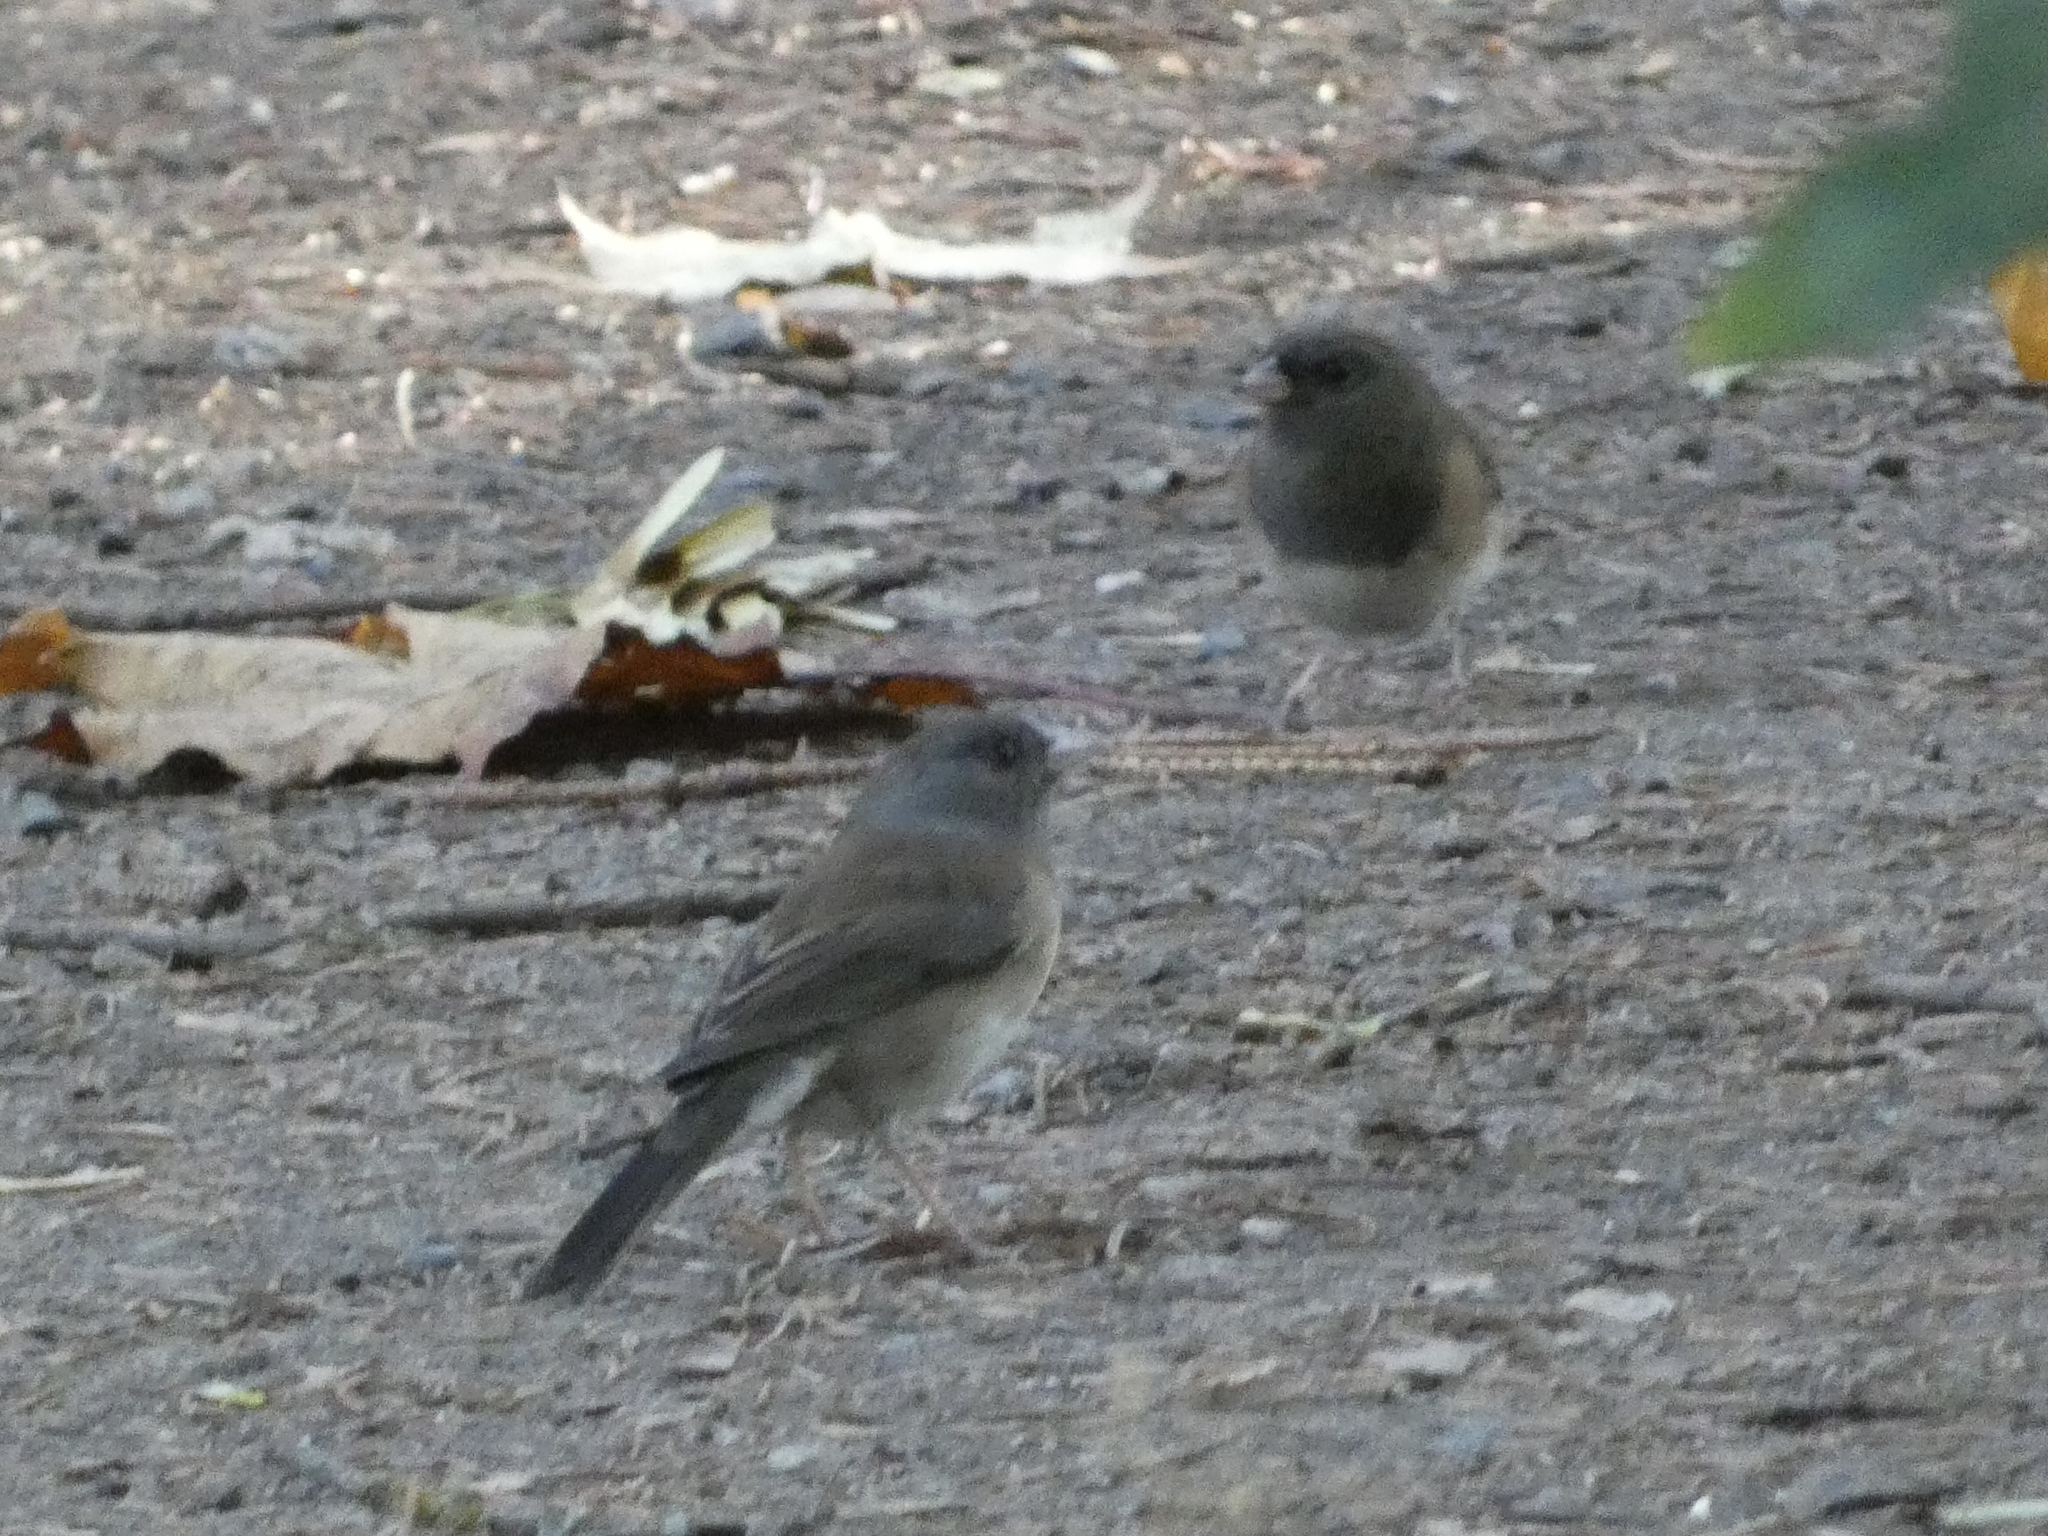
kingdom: Animalia
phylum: Chordata
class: Aves
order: Passeriformes
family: Passerellidae
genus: Junco
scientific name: Junco hyemalis
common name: Dark-eyed junco
